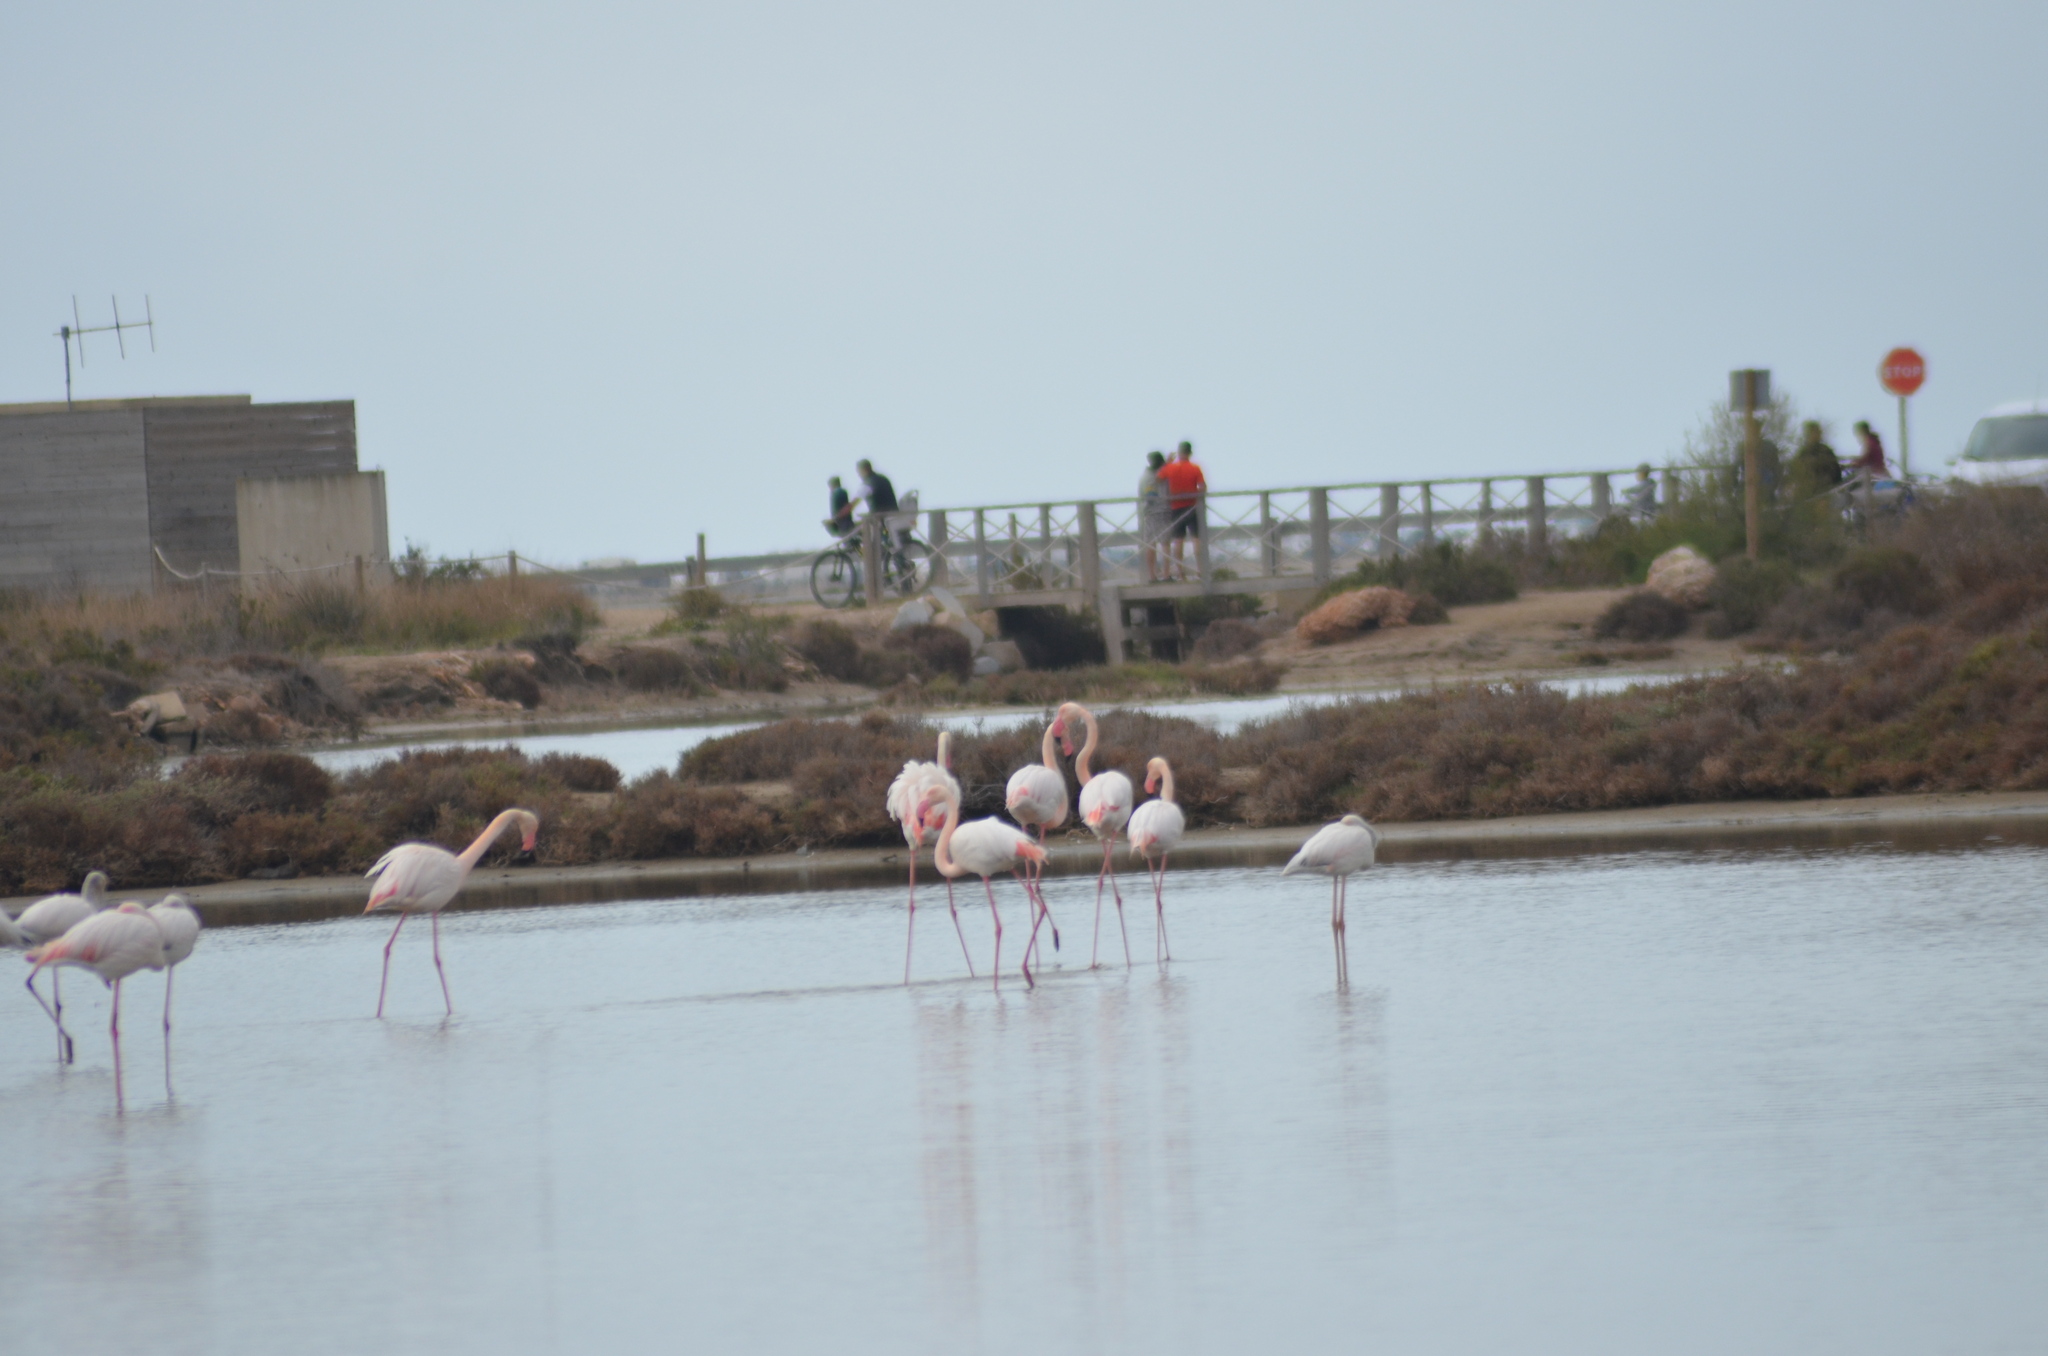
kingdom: Animalia
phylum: Chordata
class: Aves
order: Phoenicopteriformes
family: Phoenicopteridae
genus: Phoenicopterus
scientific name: Phoenicopterus roseus
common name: Greater flamingo
